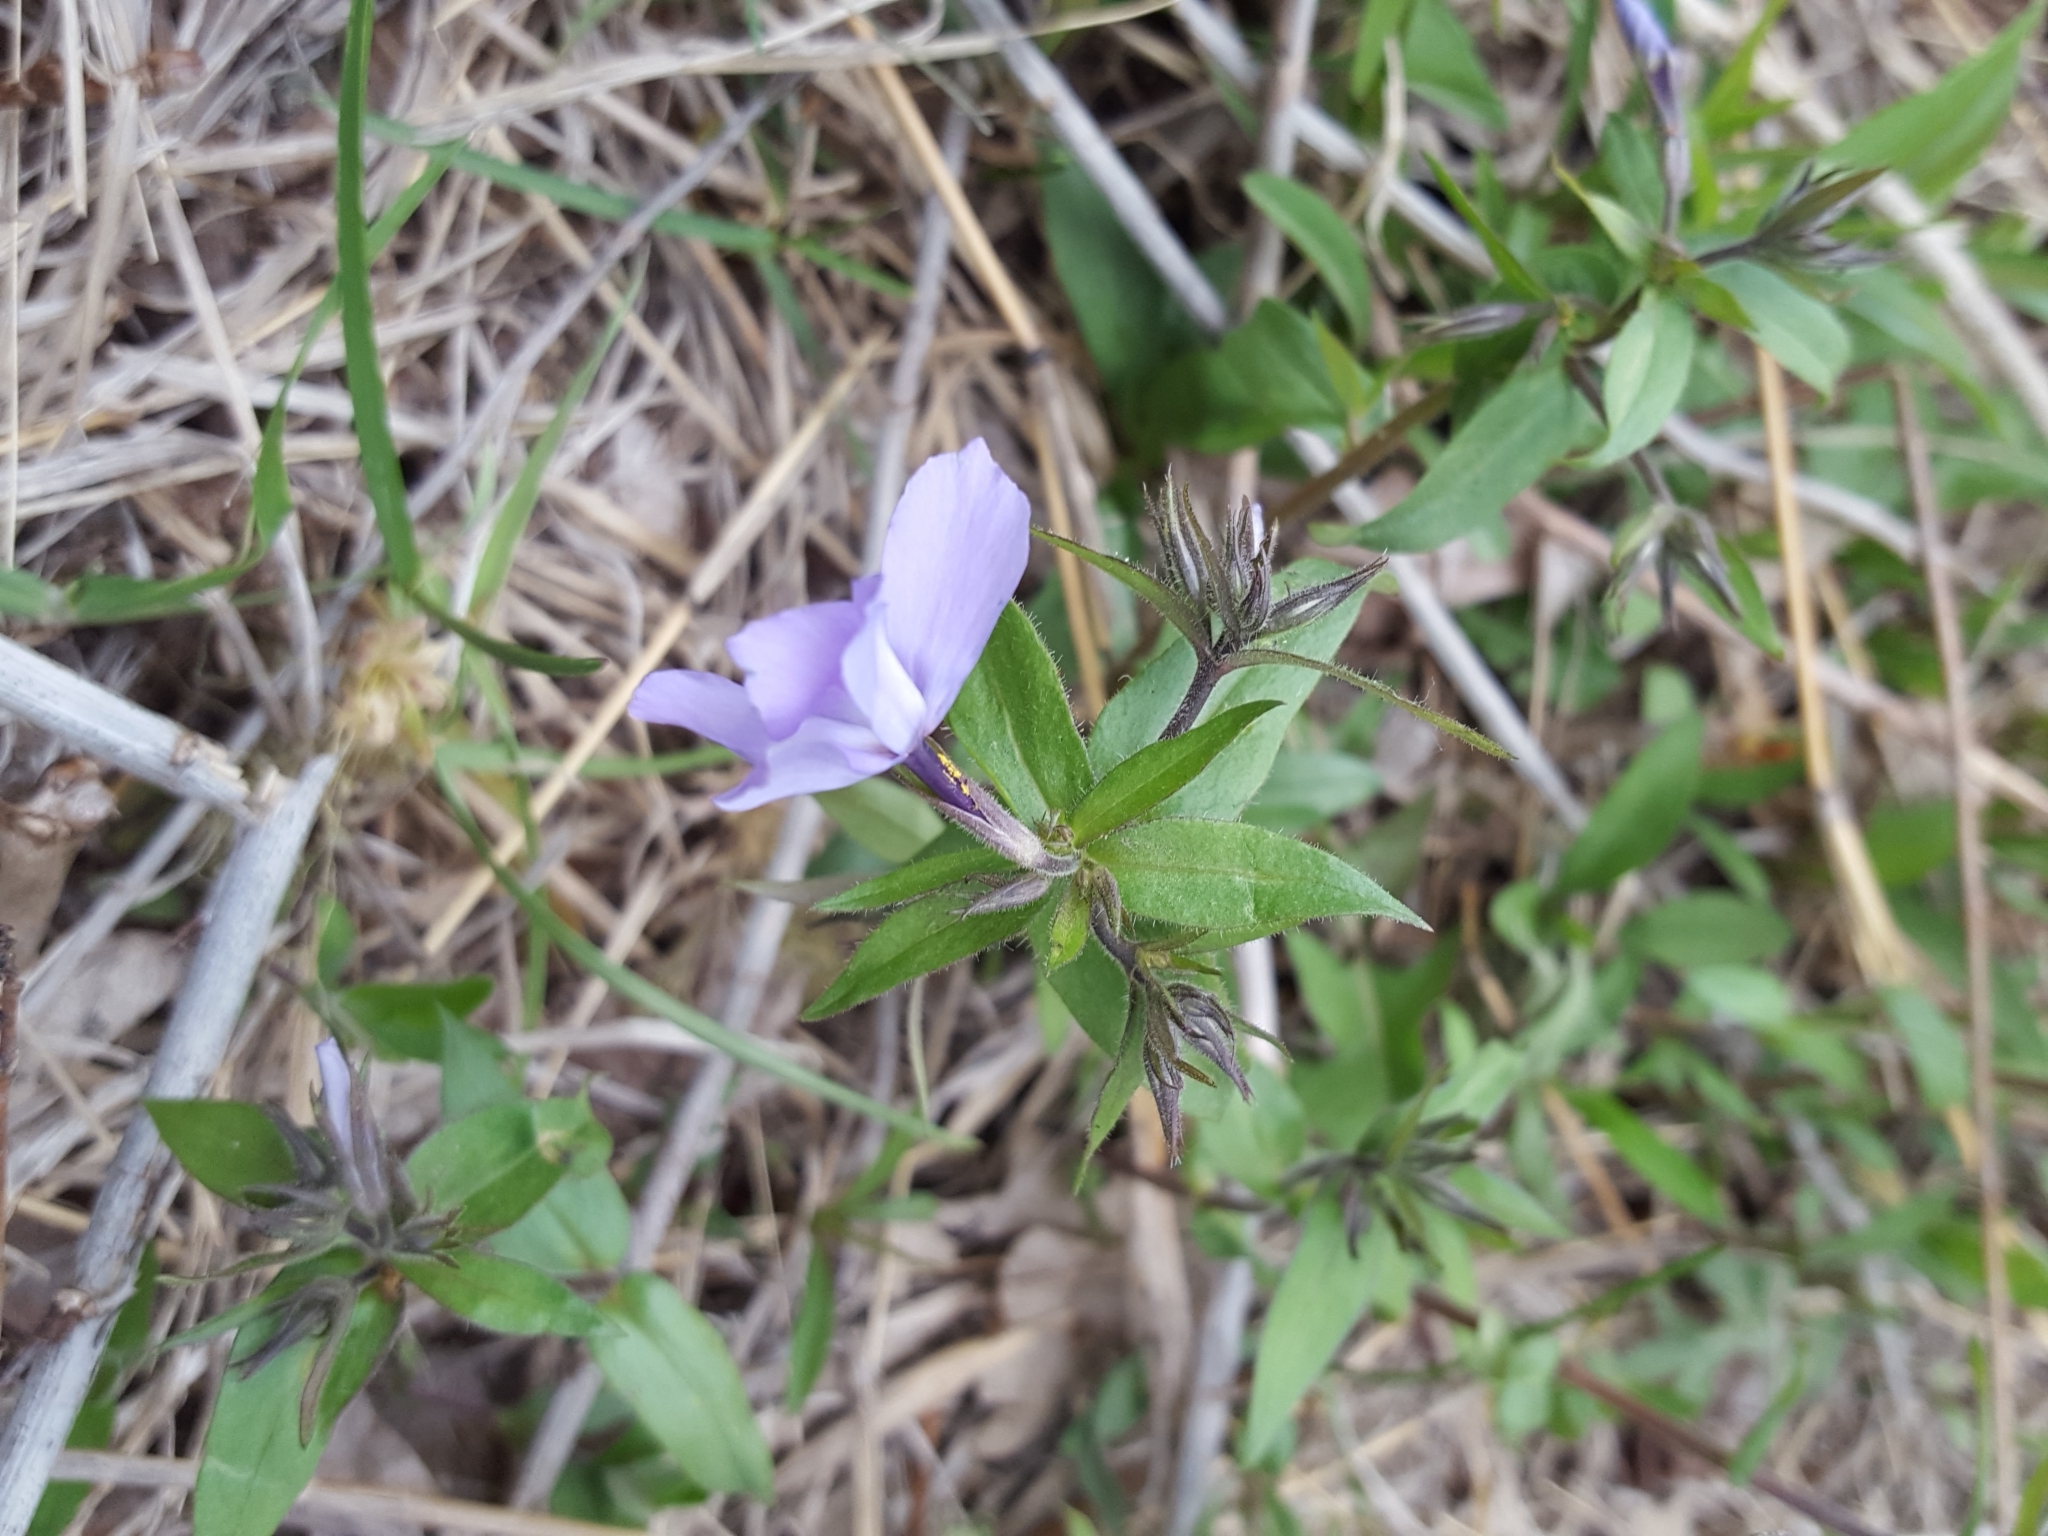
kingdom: Plantae
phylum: Tracheophyta
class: Magnoliopsida
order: Ericales
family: Polemoniaceae
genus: Phlox
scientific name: Phlox divaricata
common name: Blue phlox
